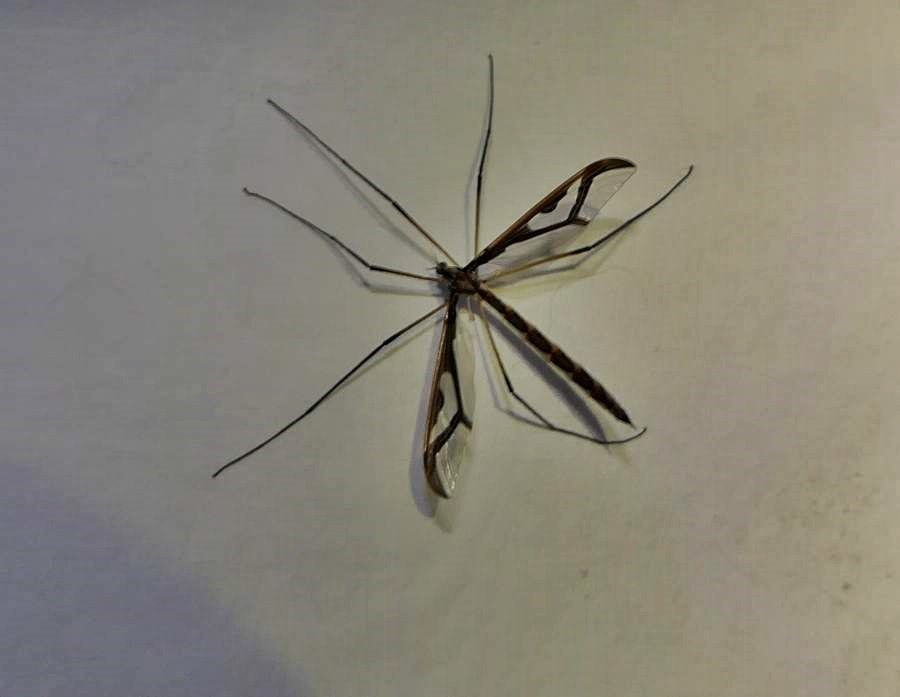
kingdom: Animalia
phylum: Arthropoda
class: Insecta
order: Diptera
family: Pediciidae
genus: Pedicia
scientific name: Pedicia albivitta
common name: Giant eastern crane fly
